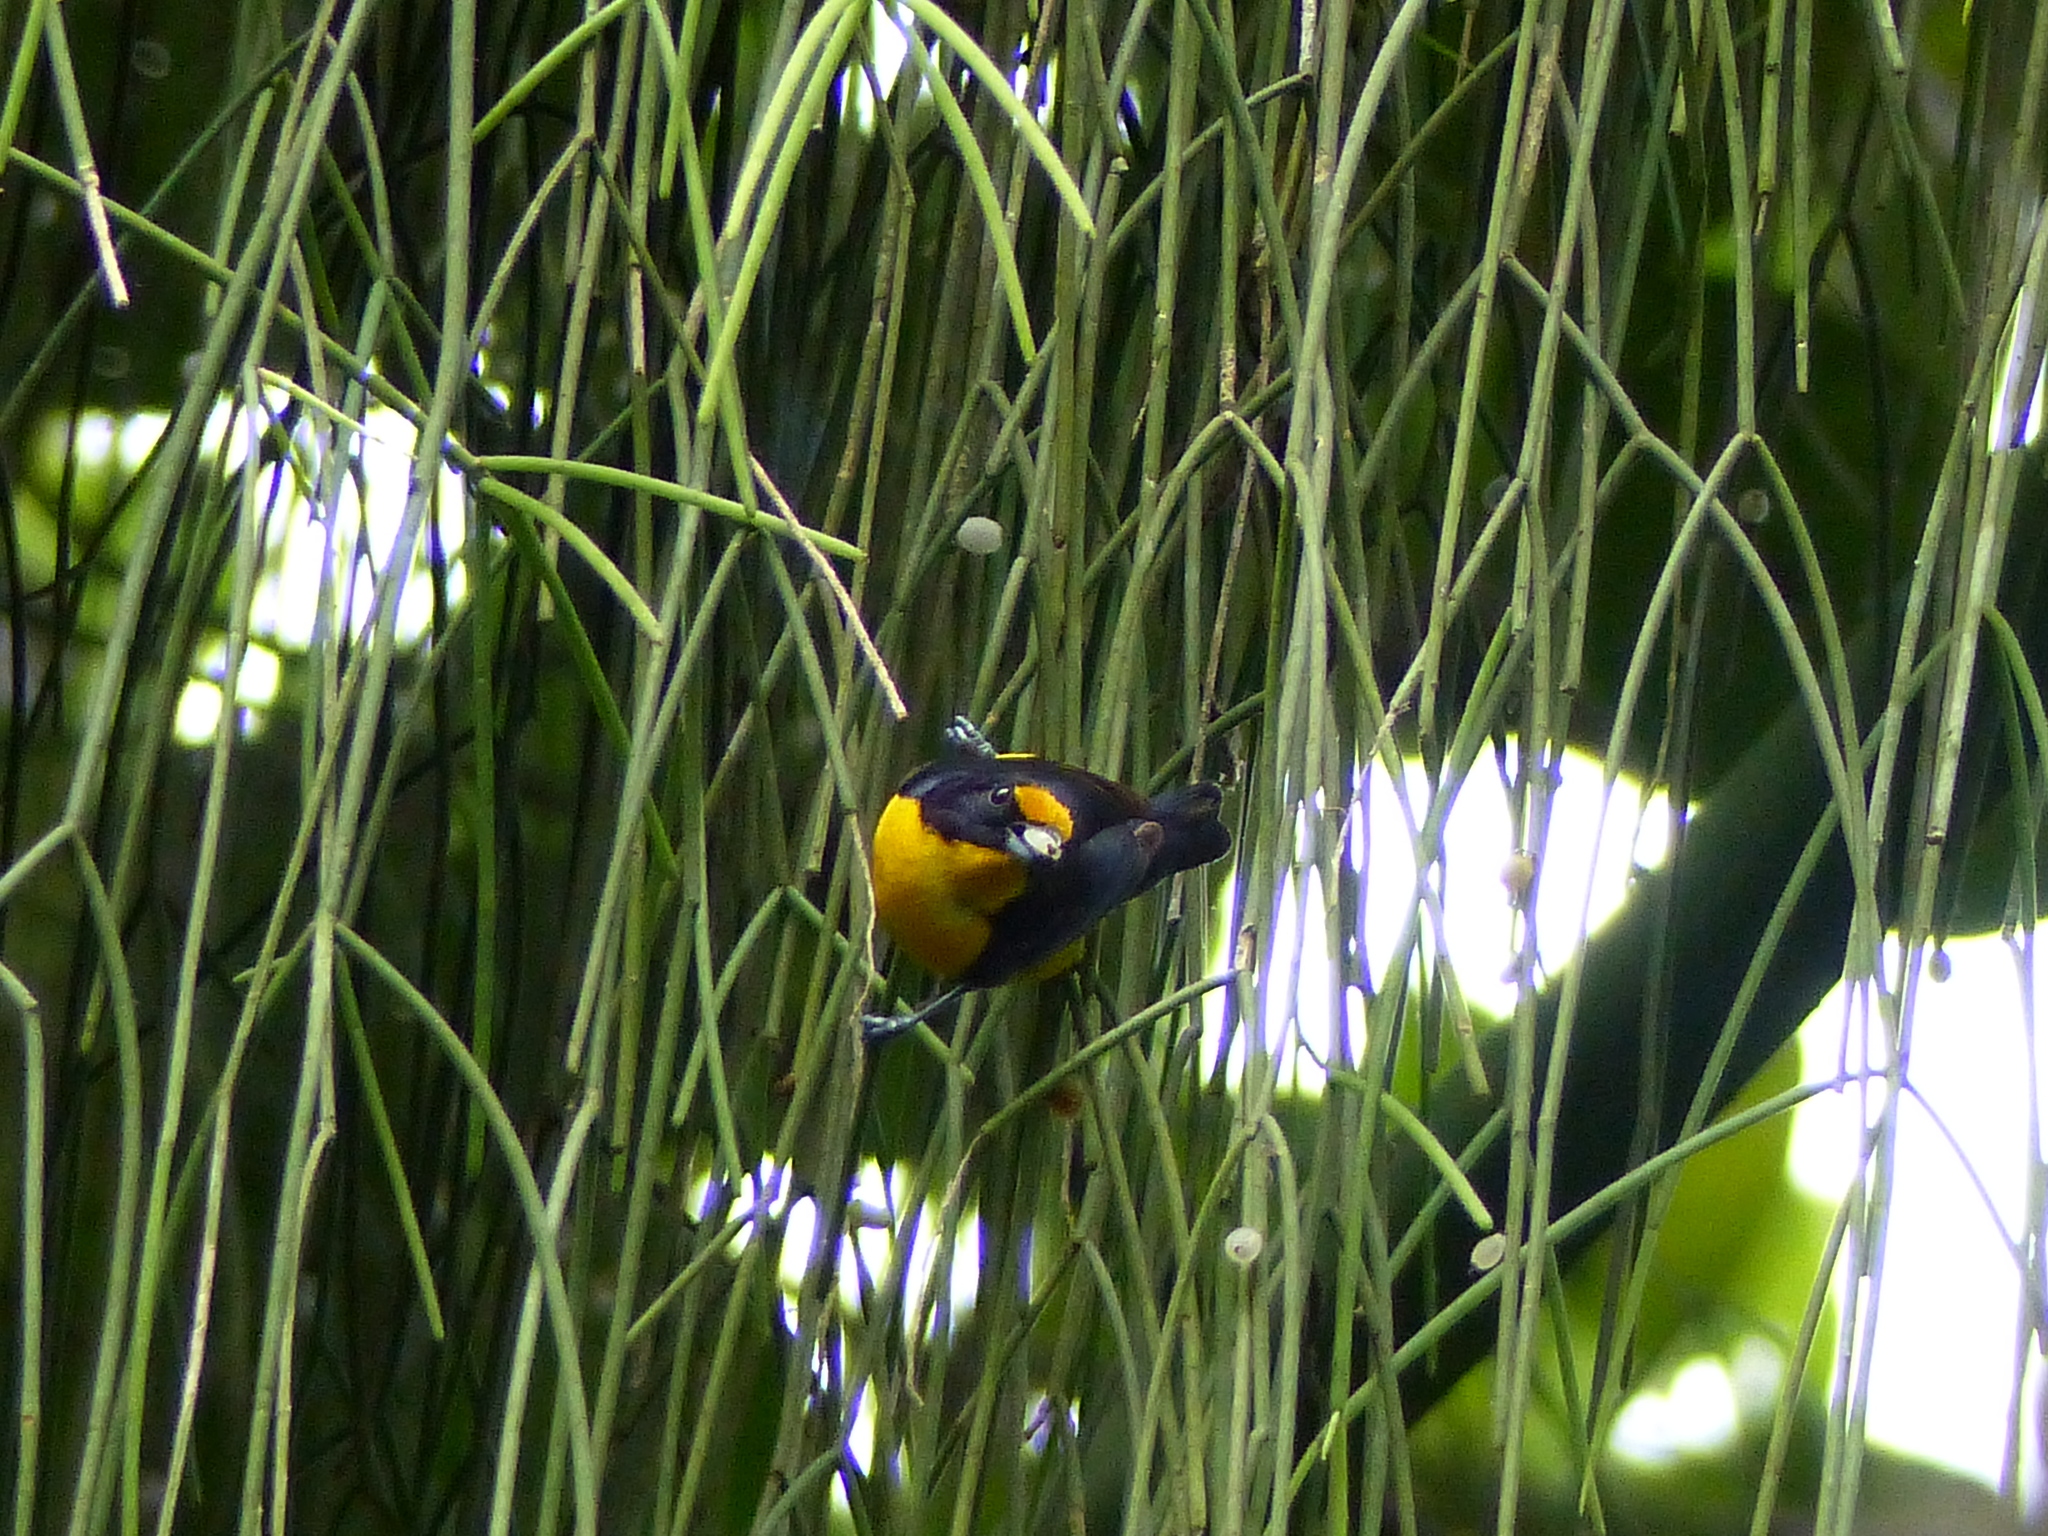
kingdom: Animalia
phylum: Chordata
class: Aves
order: Passeriformes
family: Fringillidae
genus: Euphonia
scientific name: Euphonia violacea
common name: Violaceous euphonia
